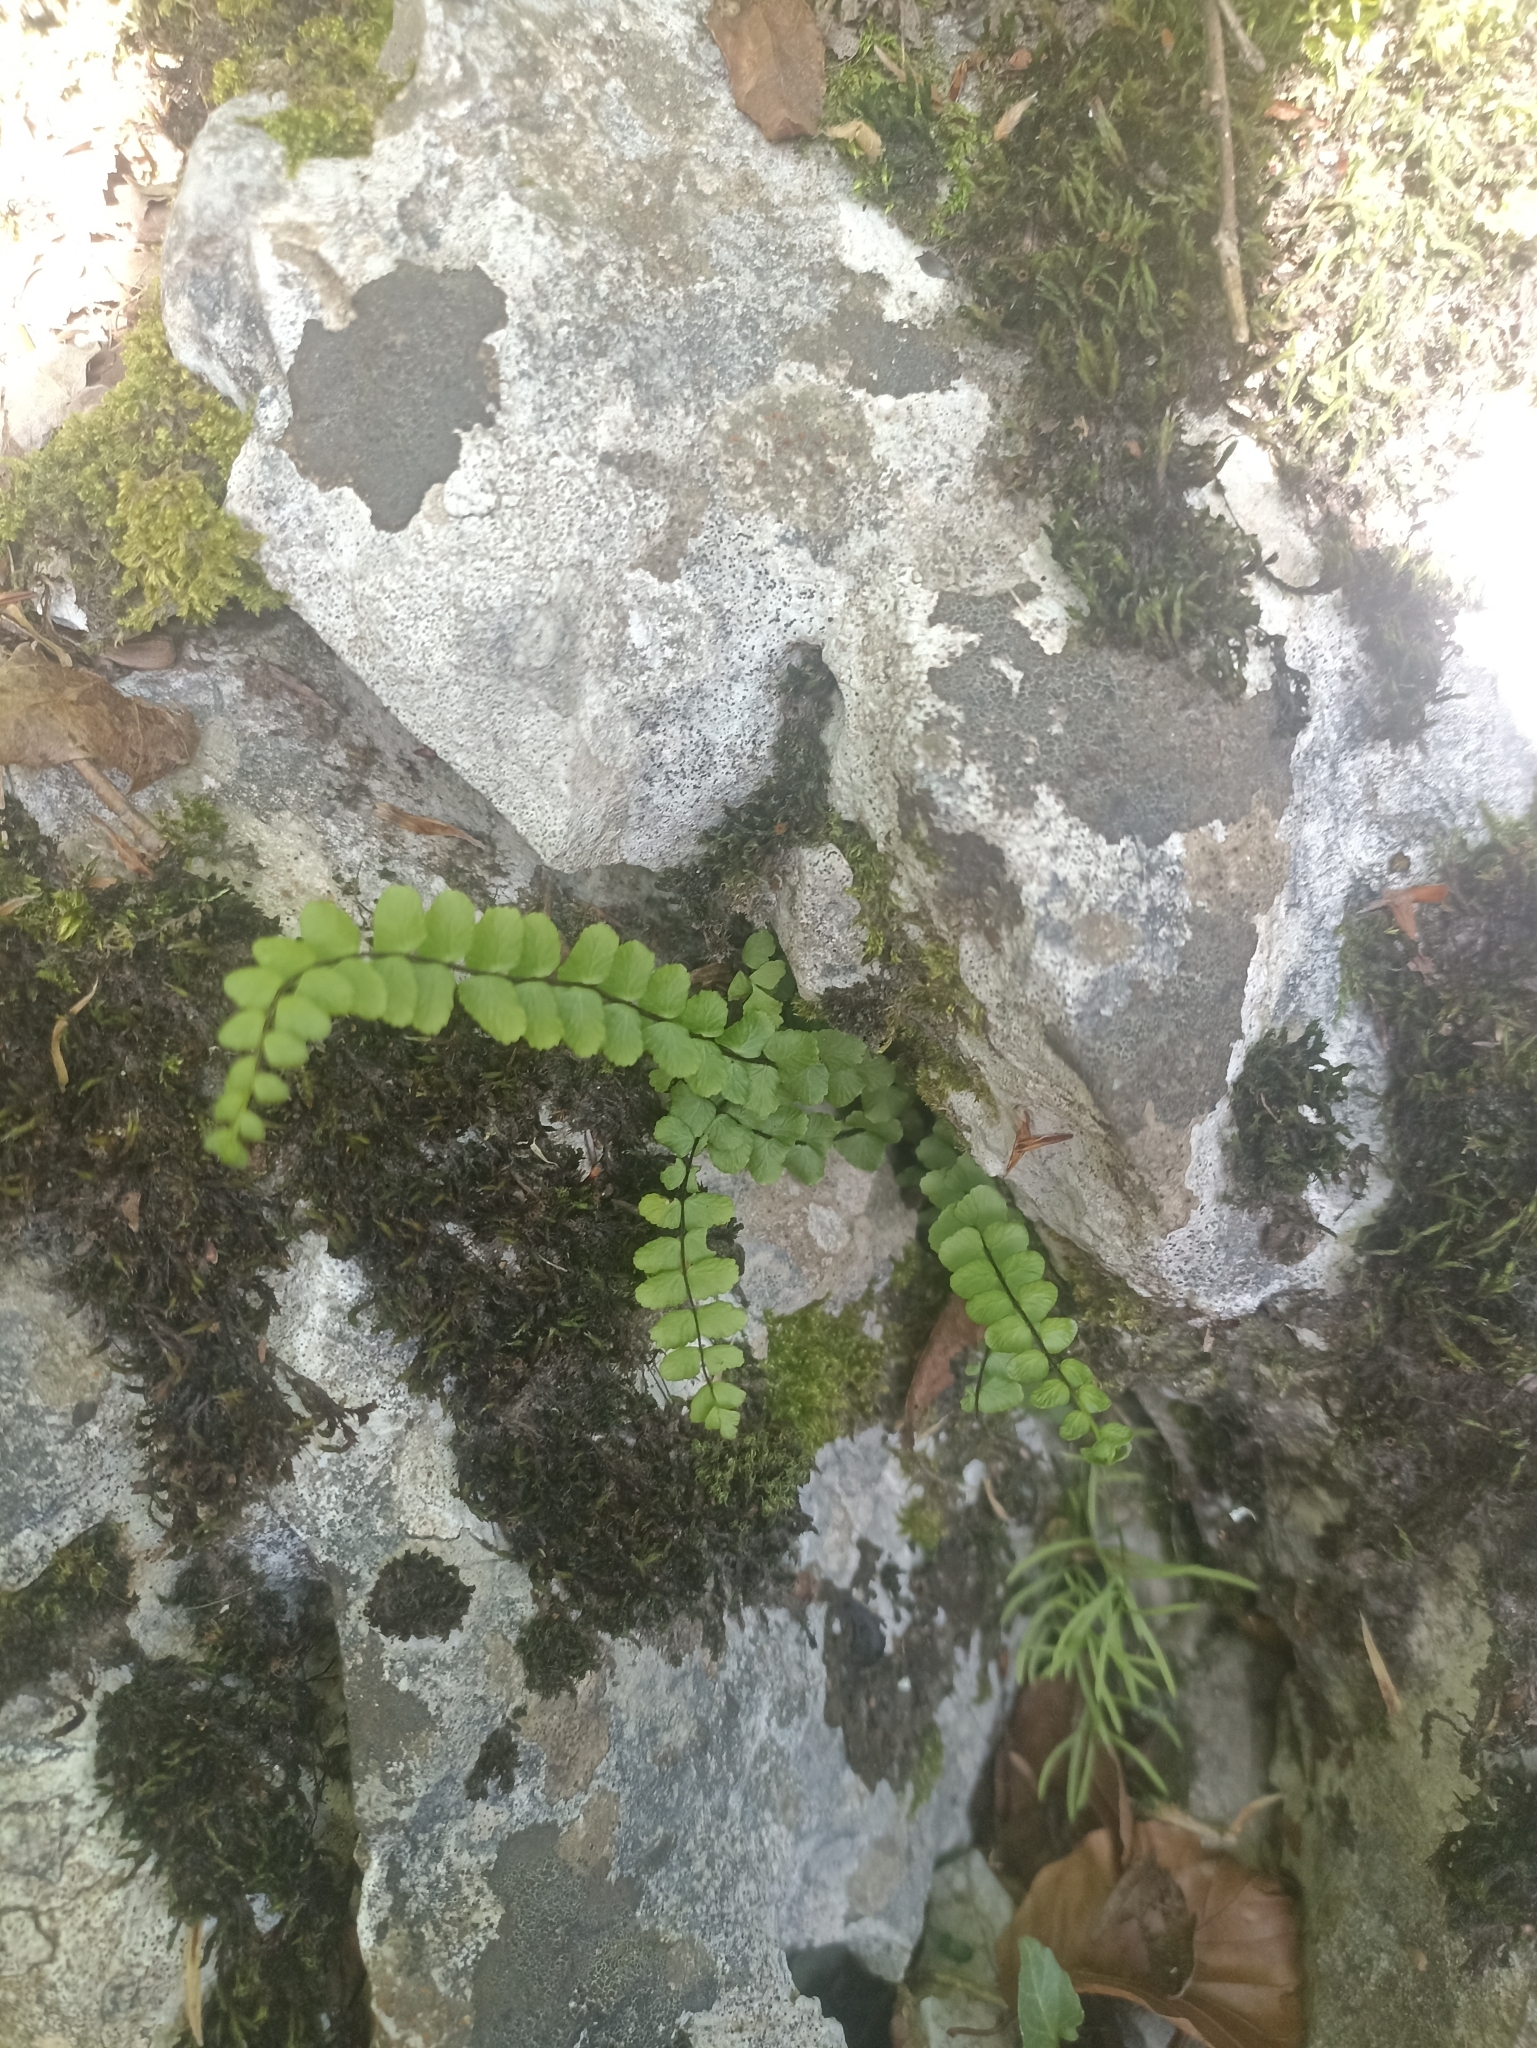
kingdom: Plantae
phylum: Tracheophyta
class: Polypodiopsida
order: Polypodiales
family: Aspleniaceae
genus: Asplenium
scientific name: Asplenium trichomanes
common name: Maidenhair spleenwort
